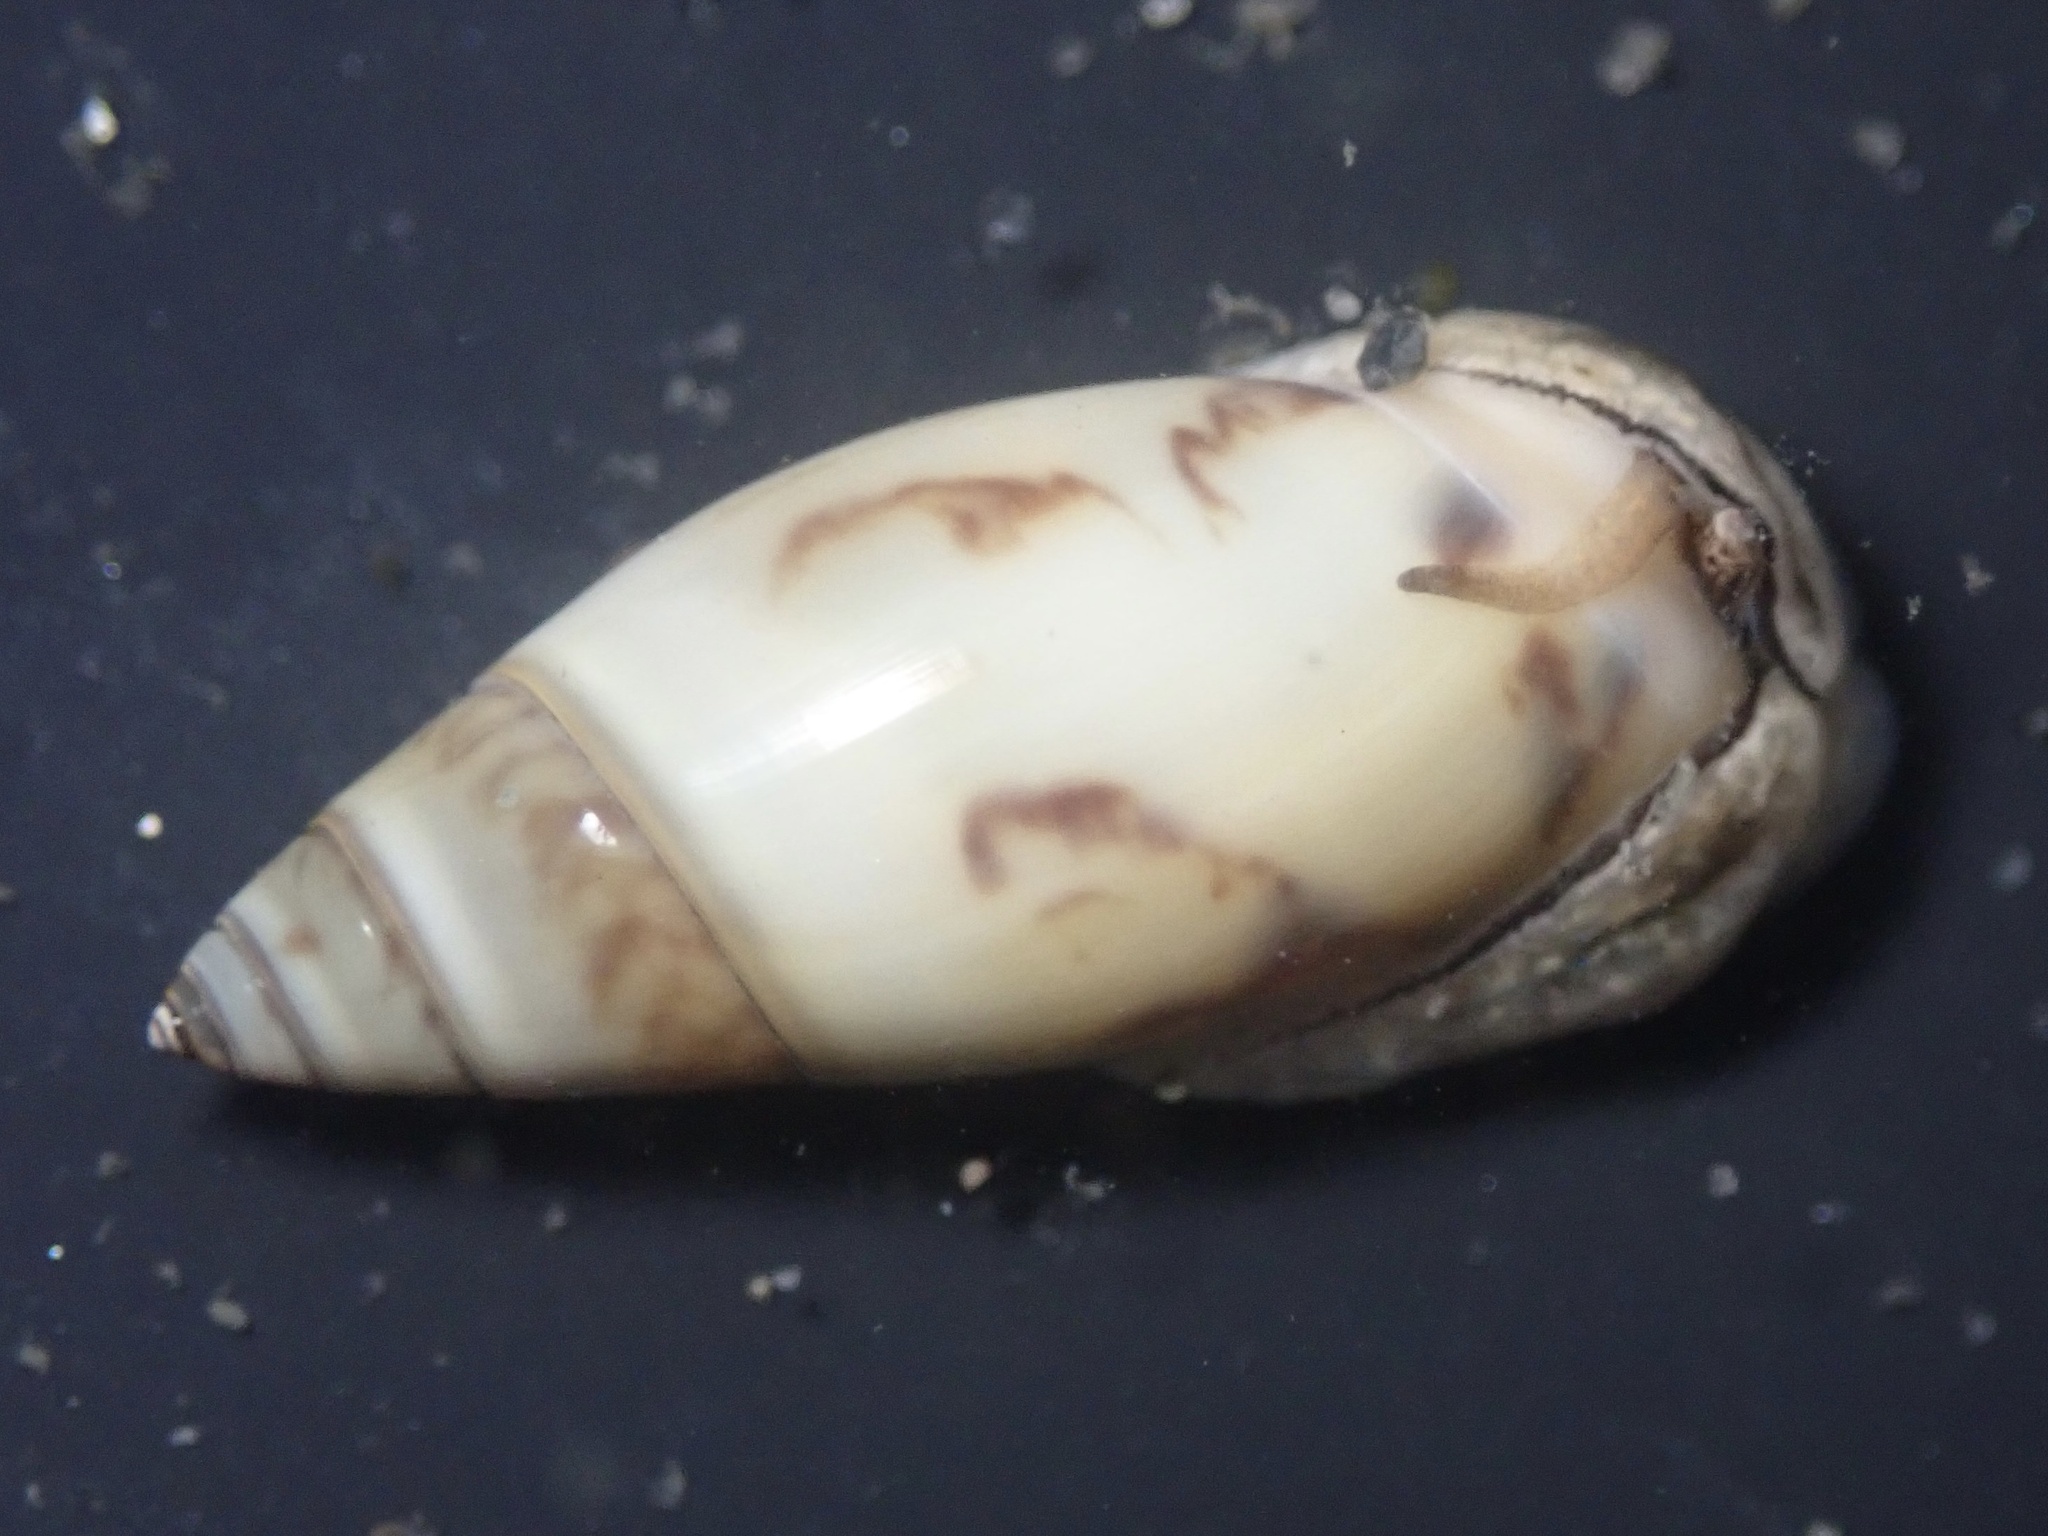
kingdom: Animalia
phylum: Mollusca
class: Gastropoda
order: Neogastropoda
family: Olividae
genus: Callianax
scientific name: Callianax alectona
